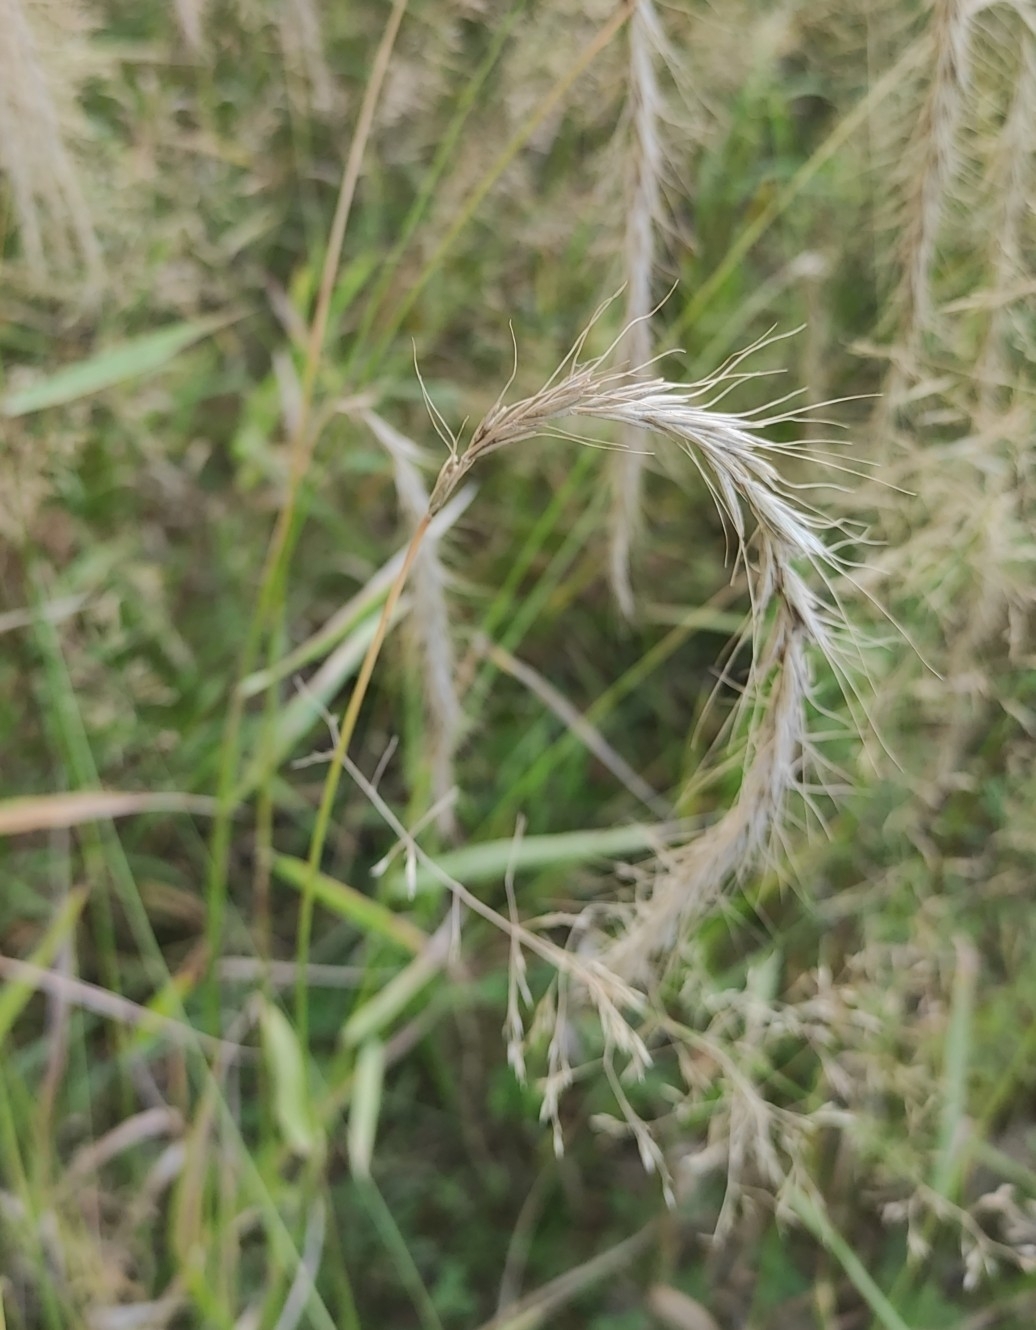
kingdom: Plantae
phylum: Tracheophyta
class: Liliopsida
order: Poales
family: Poaceae
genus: Elymus
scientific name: Elymus sibiricus
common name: Siberian wildrye
